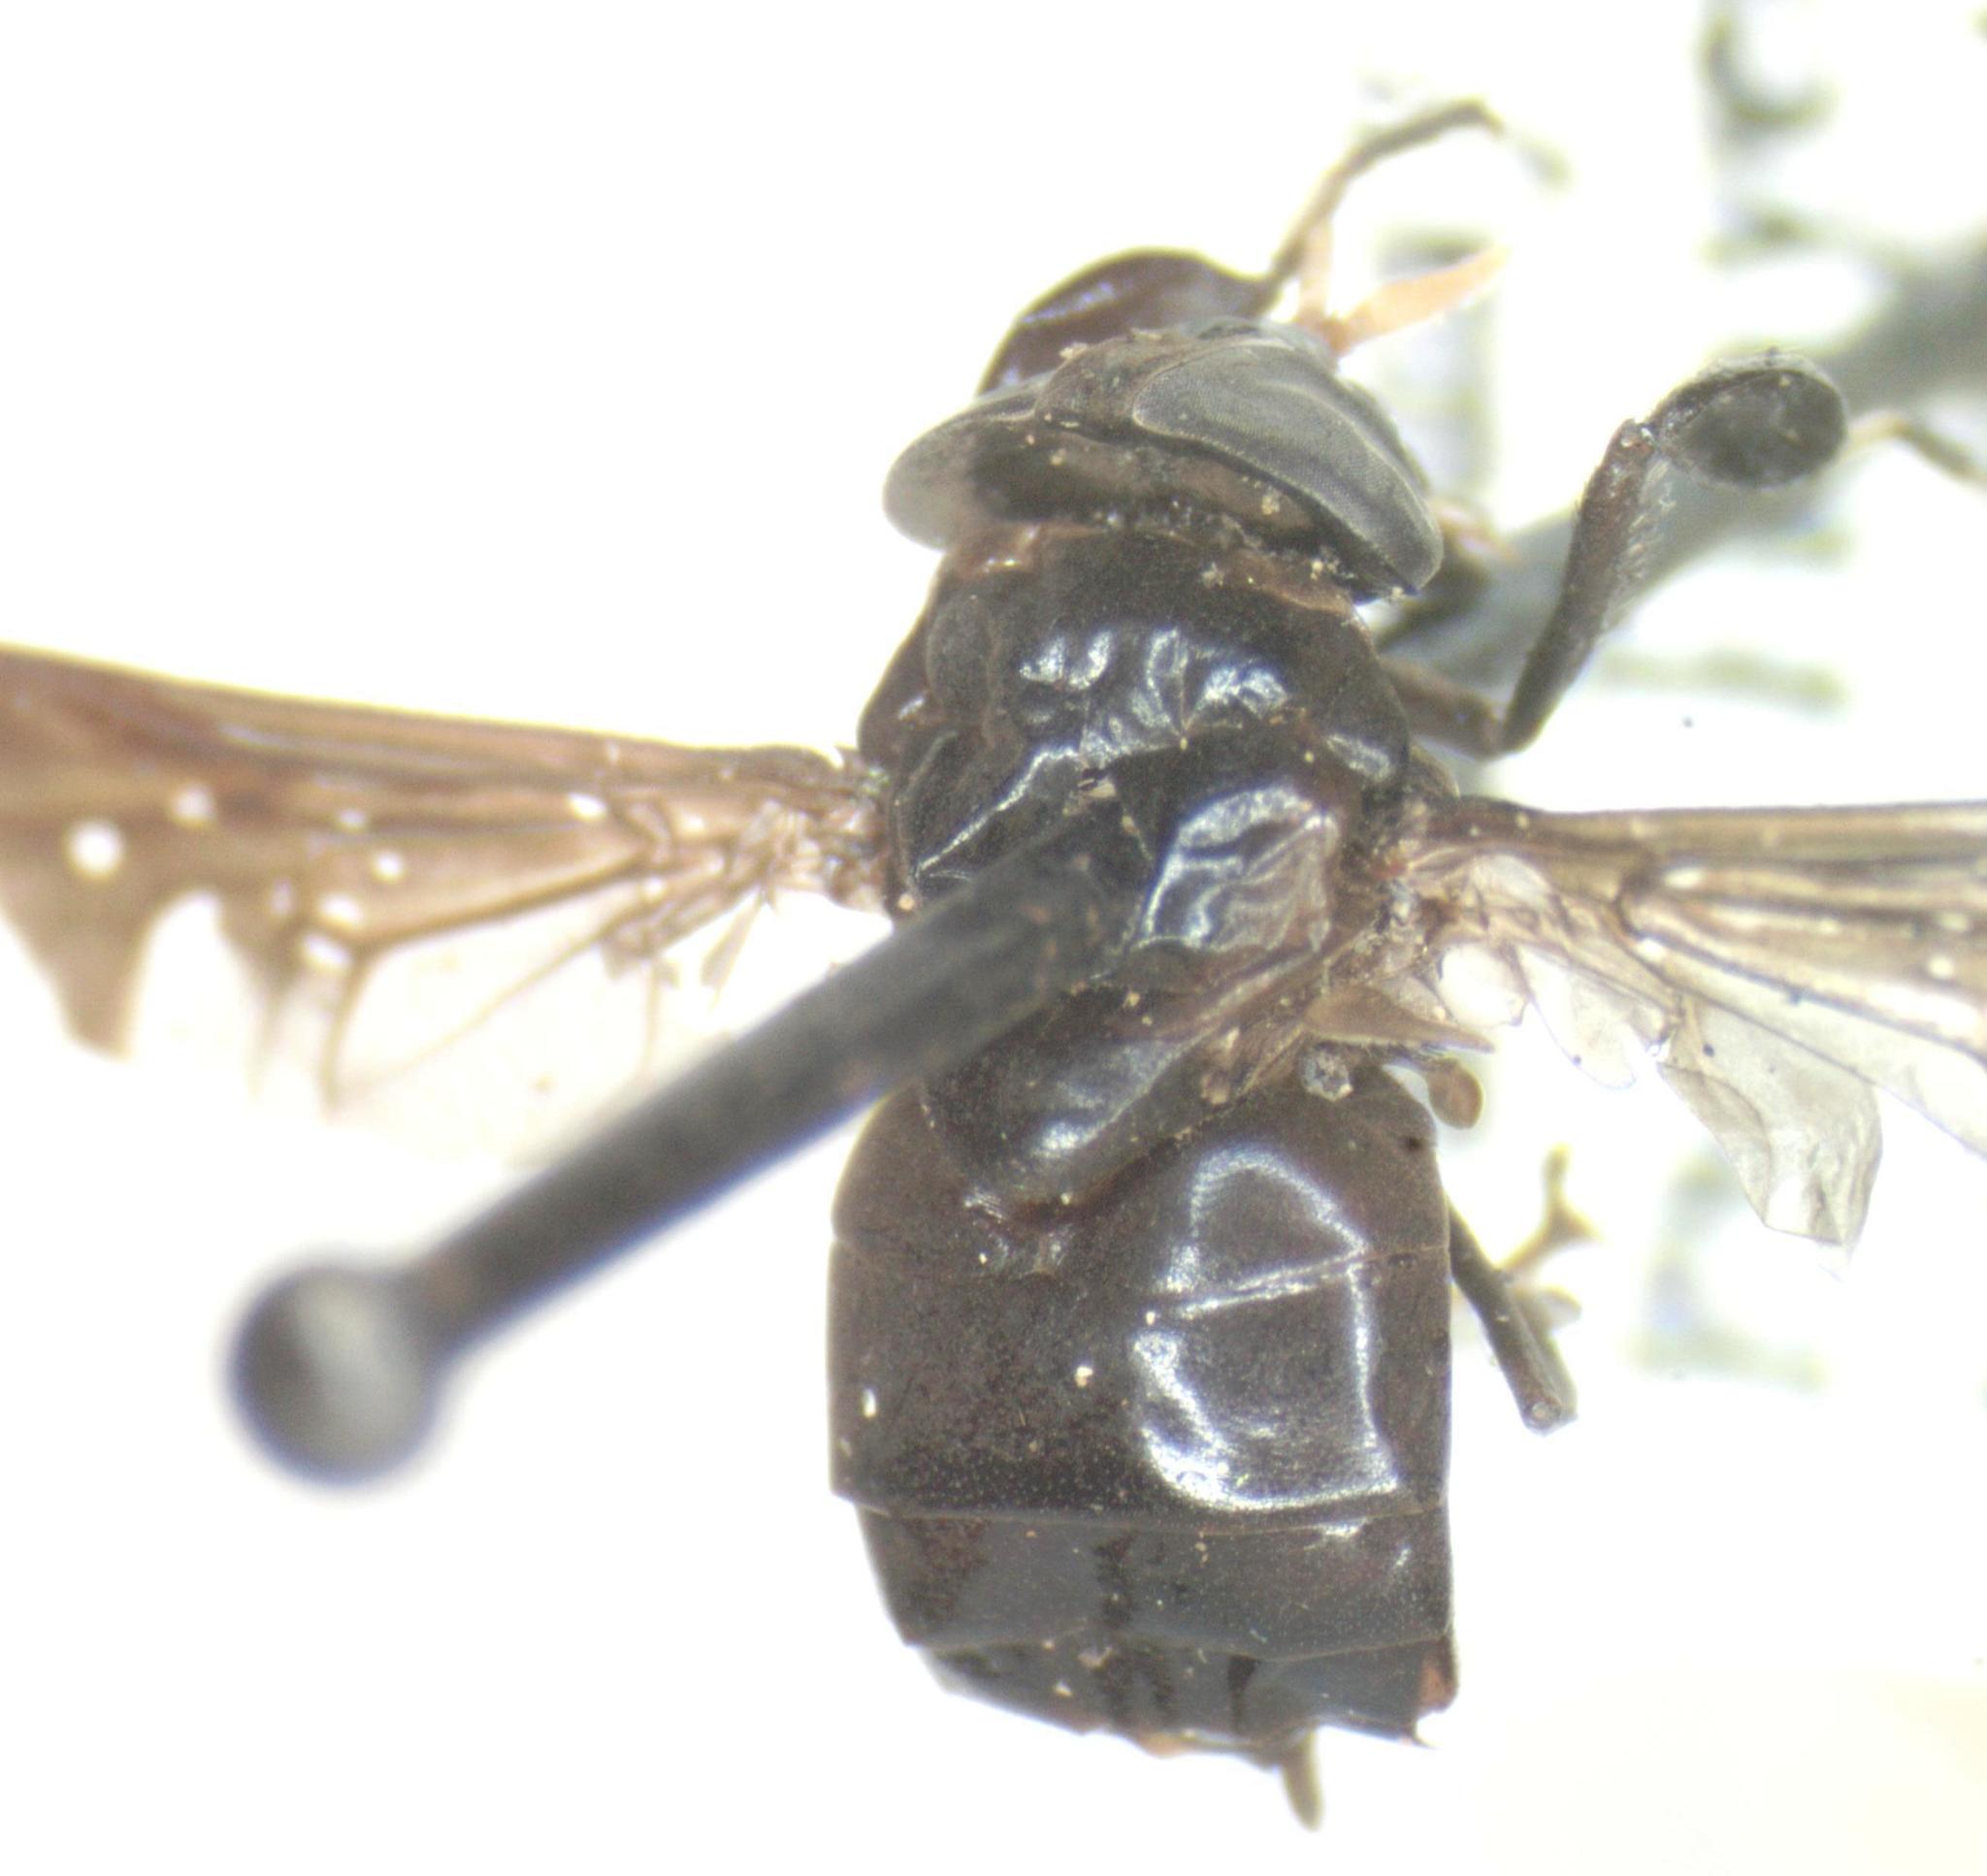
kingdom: Animalia
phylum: Arthropoda
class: Insecta
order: Diptera
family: Tabanidae
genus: Lepiselaga
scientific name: Lepiselaga crassipes
